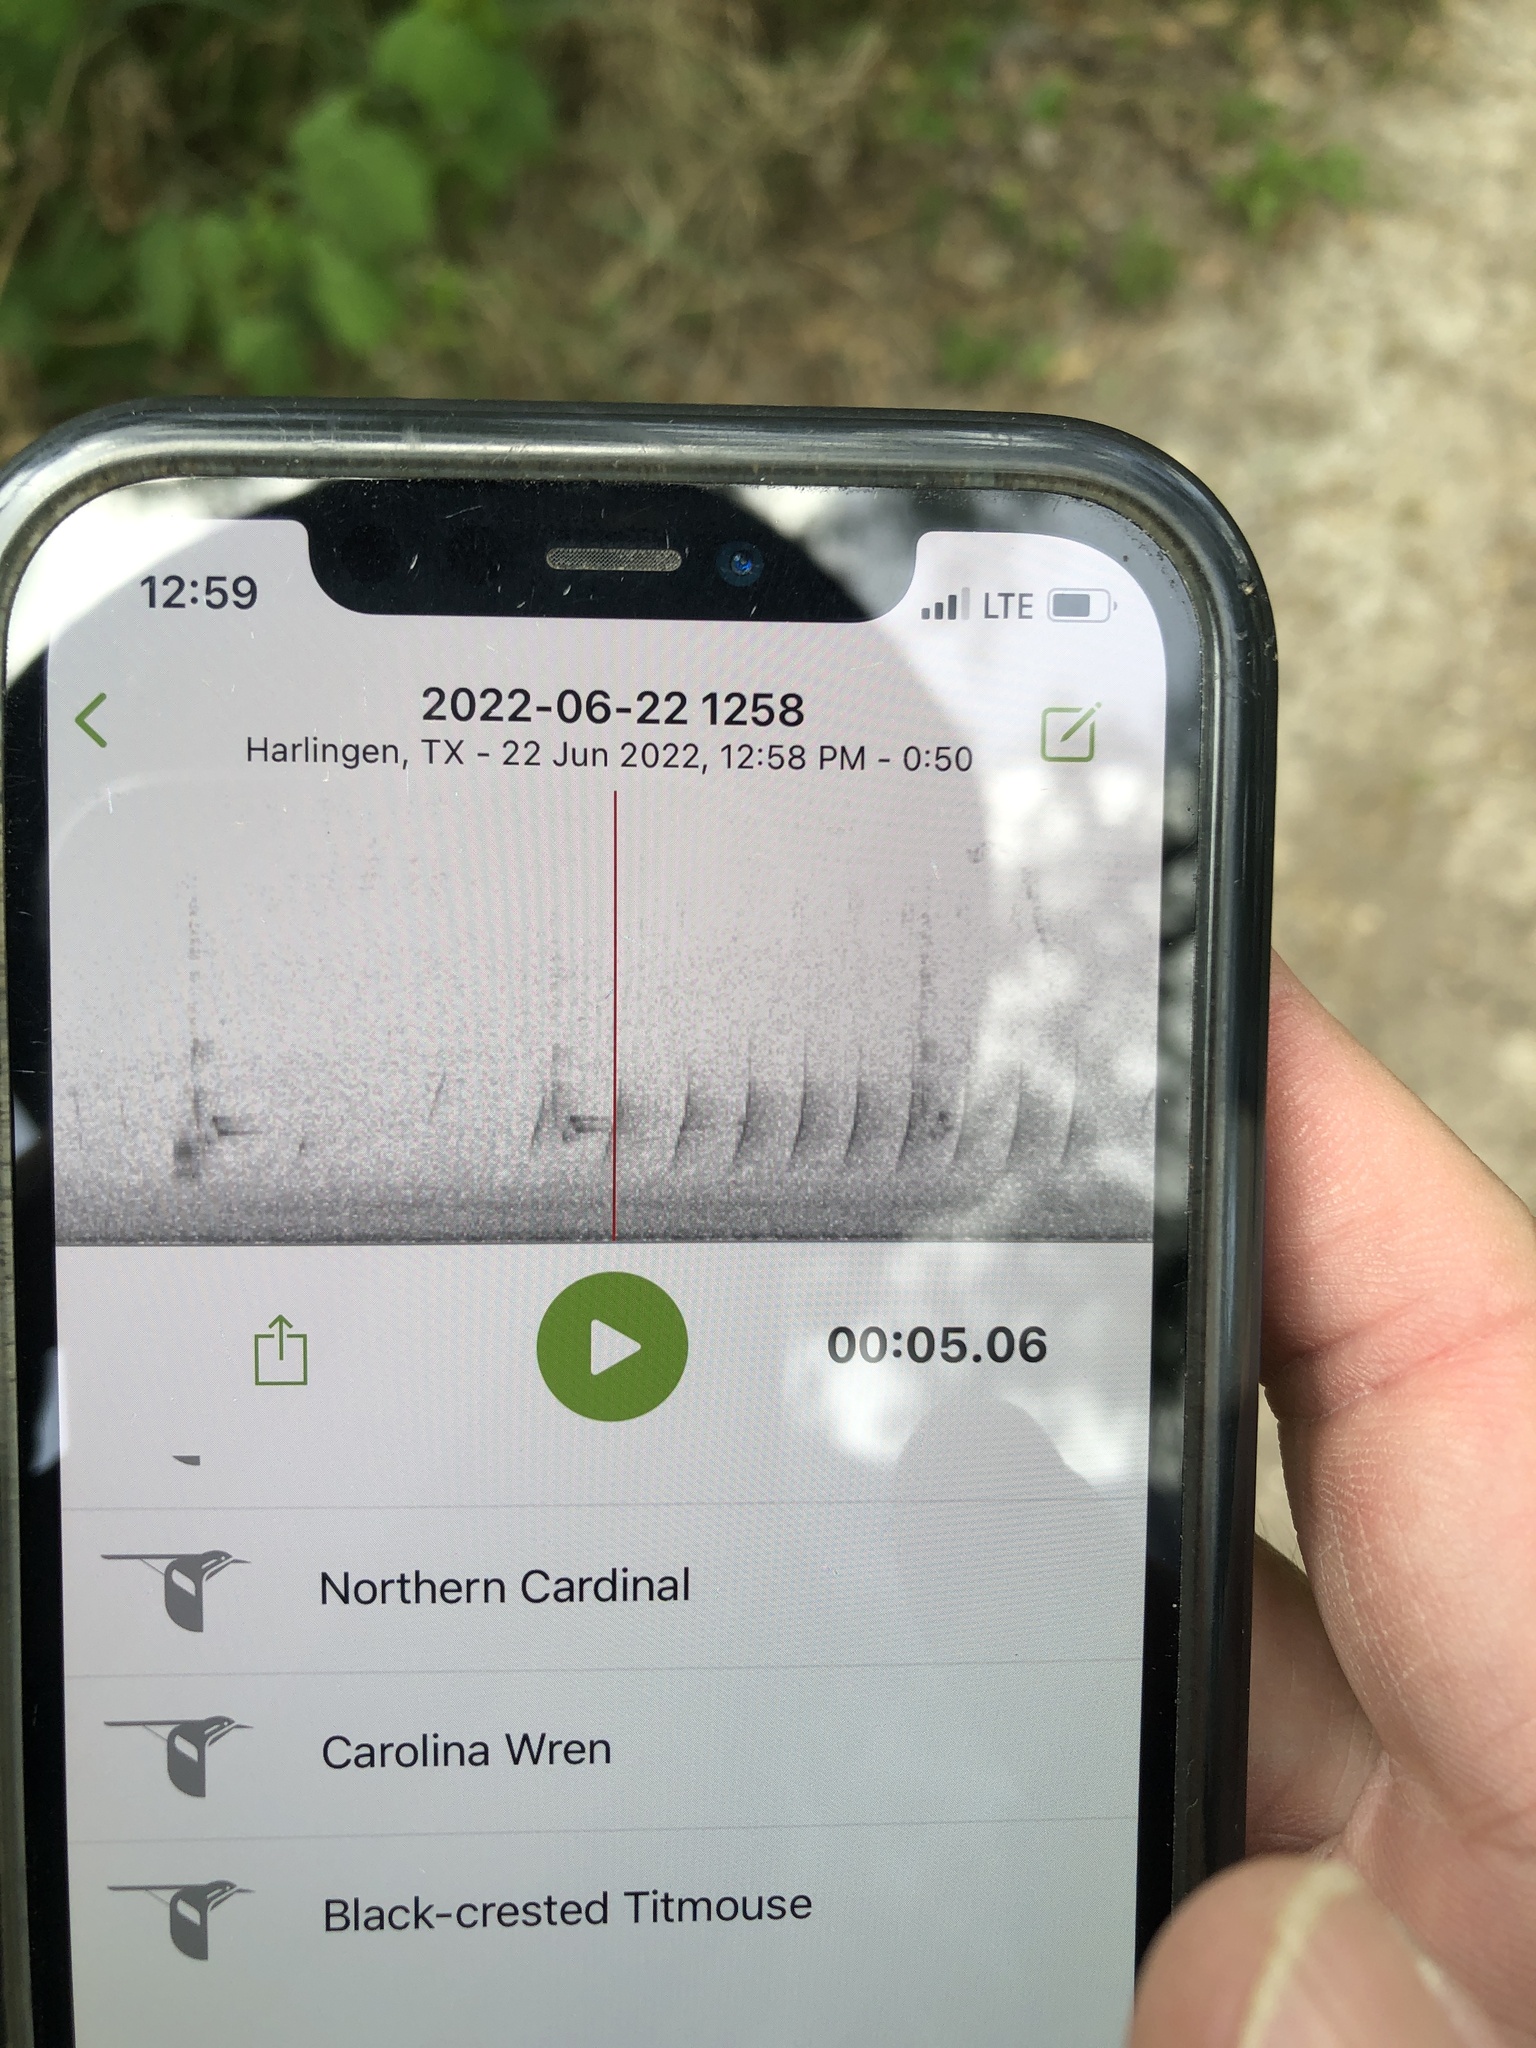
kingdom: Animalia
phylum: Chordata
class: Aves
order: Passeriformes
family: Cardinalidae
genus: Cardinalis
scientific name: Cardinalis cardinalis
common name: Northern cardinal
